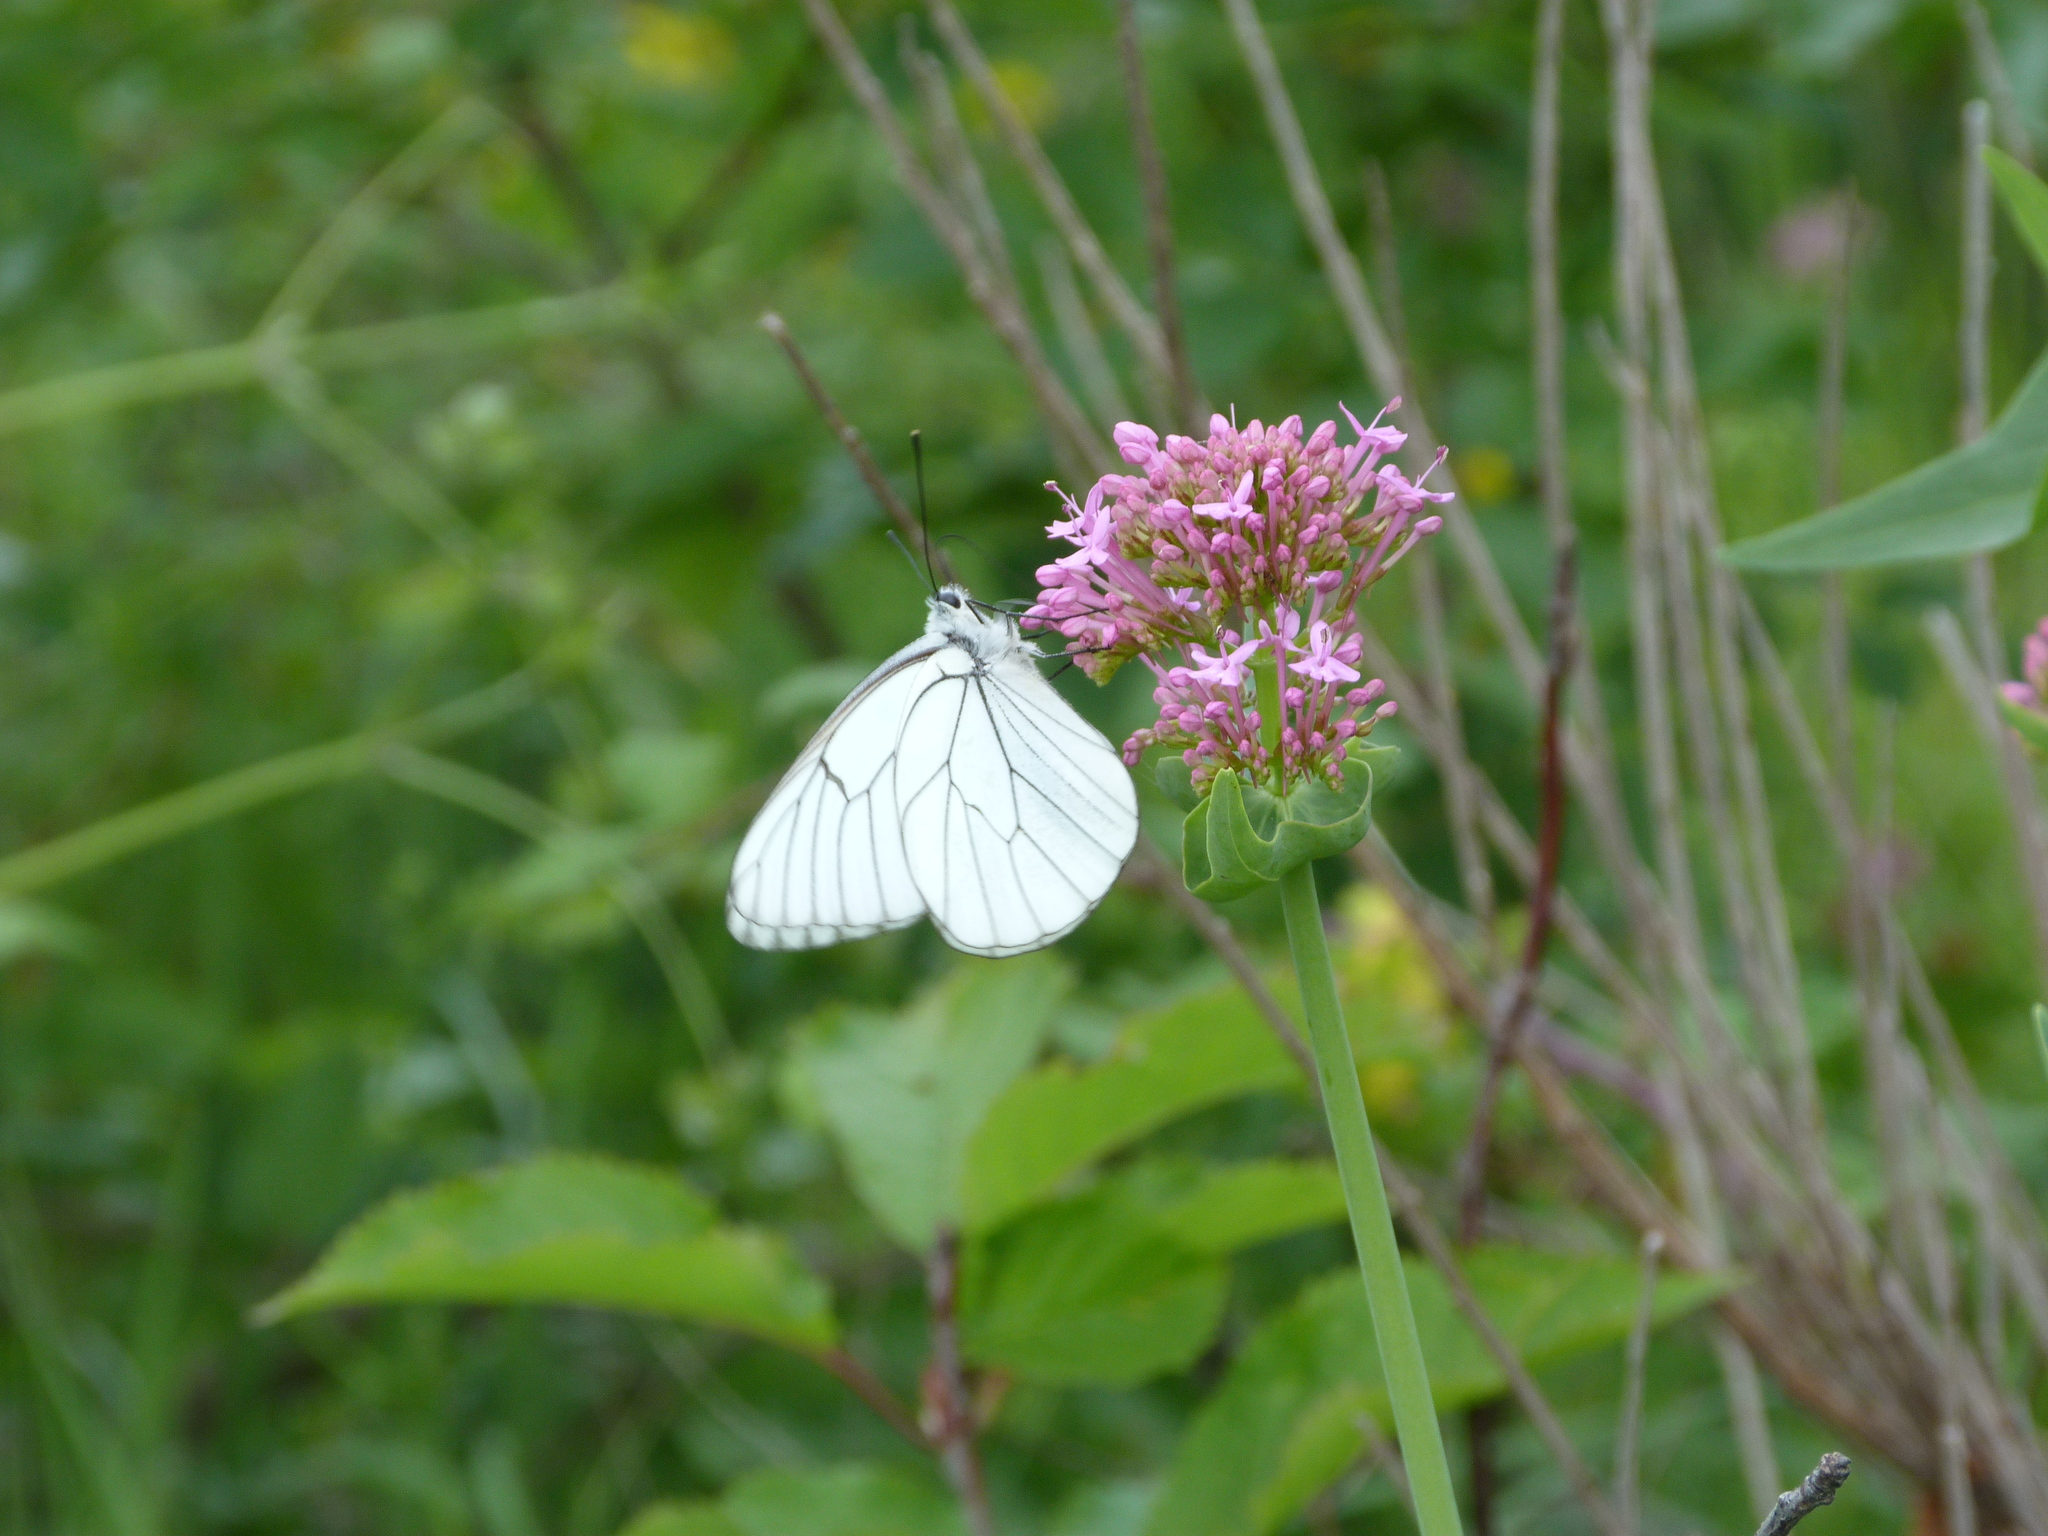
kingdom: Animalia
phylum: Arthropoda
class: Insecta
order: Lepidoptera
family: Pieridae
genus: Aporia
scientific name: Aporia crataegi
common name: Black-veined white
